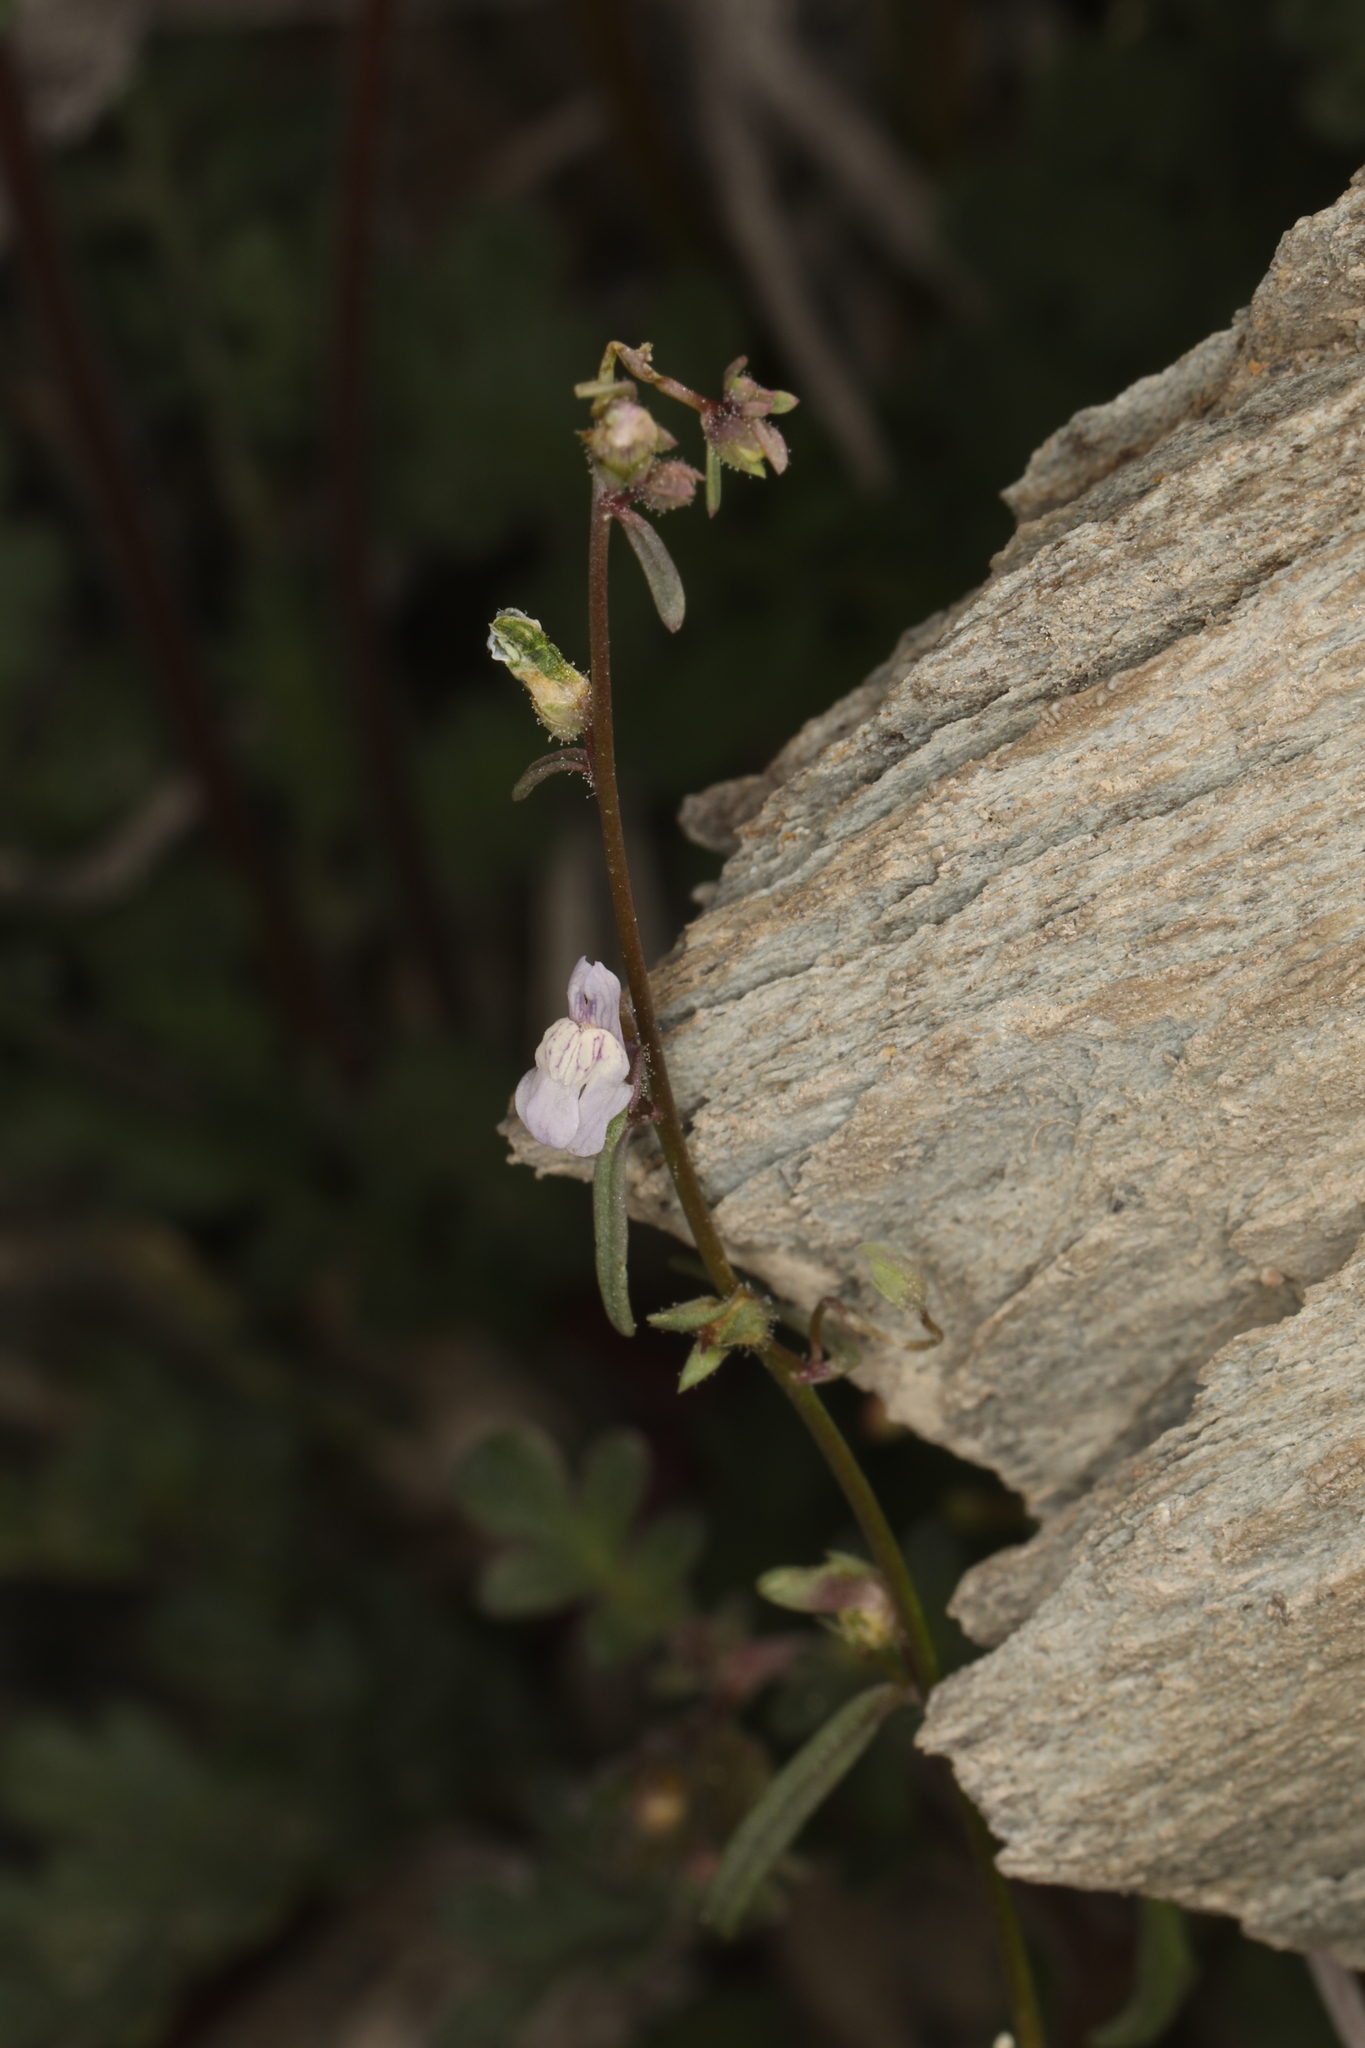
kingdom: Plantae
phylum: Tracheophyta
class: Magnoliopsida
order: Lamiales
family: Plantaginaceae
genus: Sairocarpus
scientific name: Sairocarpus kingii
